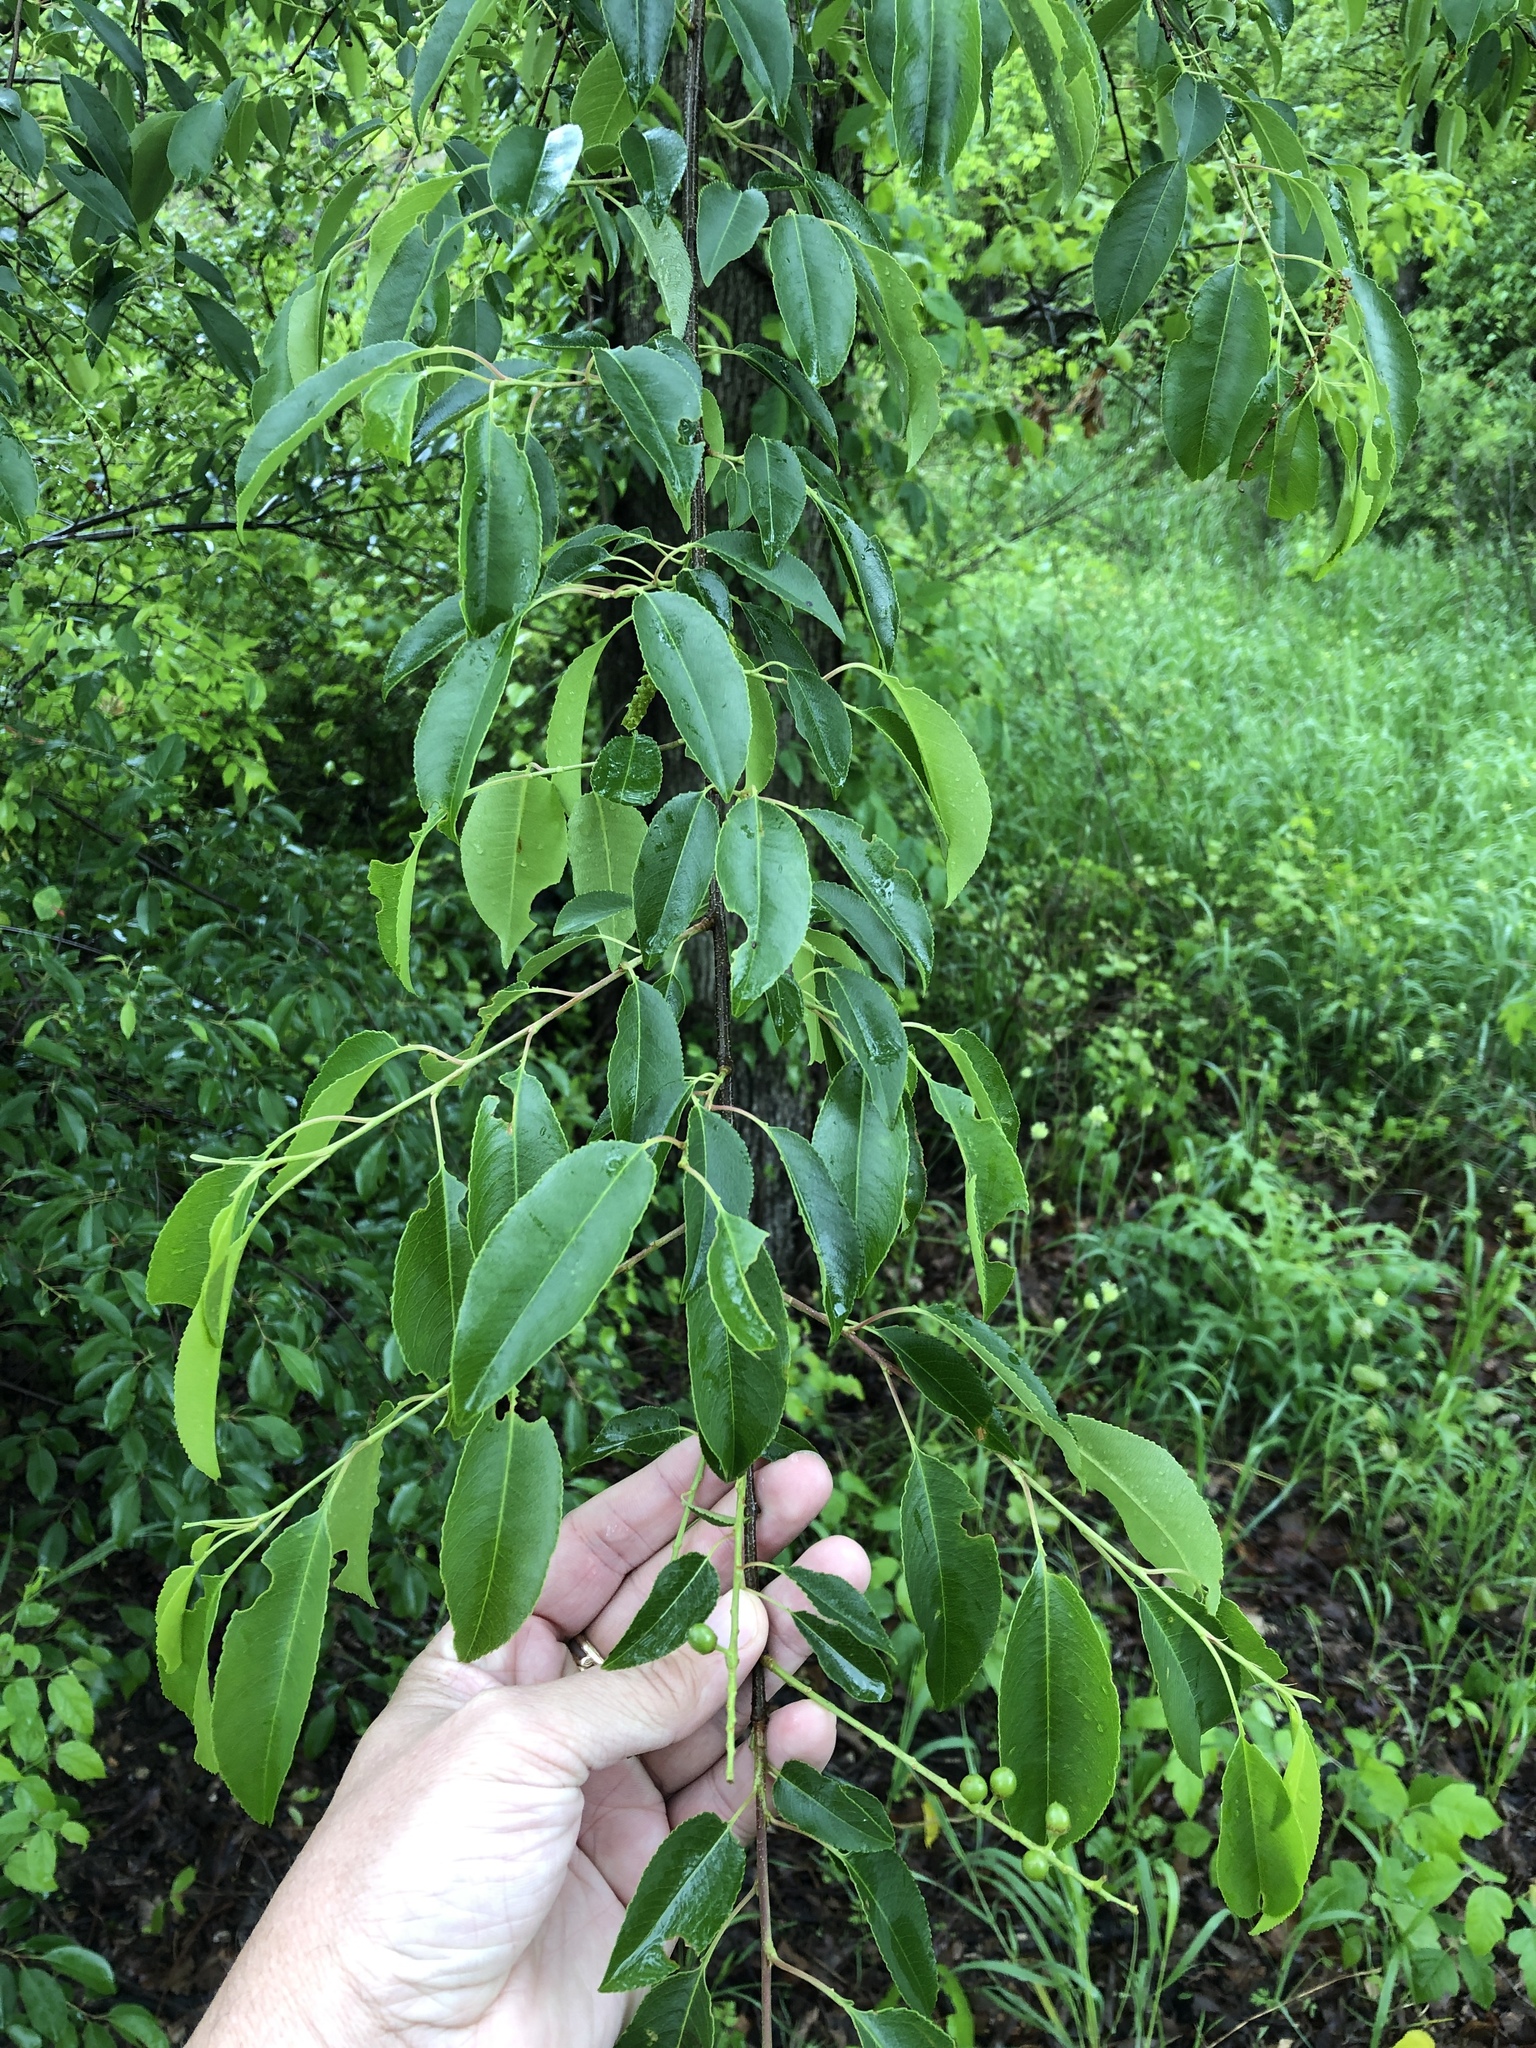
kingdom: Plantae
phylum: Tracheophyta
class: Magnoliopsida
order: Rosales
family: Rosaceae
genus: Prunus
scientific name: Prunus serotina
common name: Black cherry
